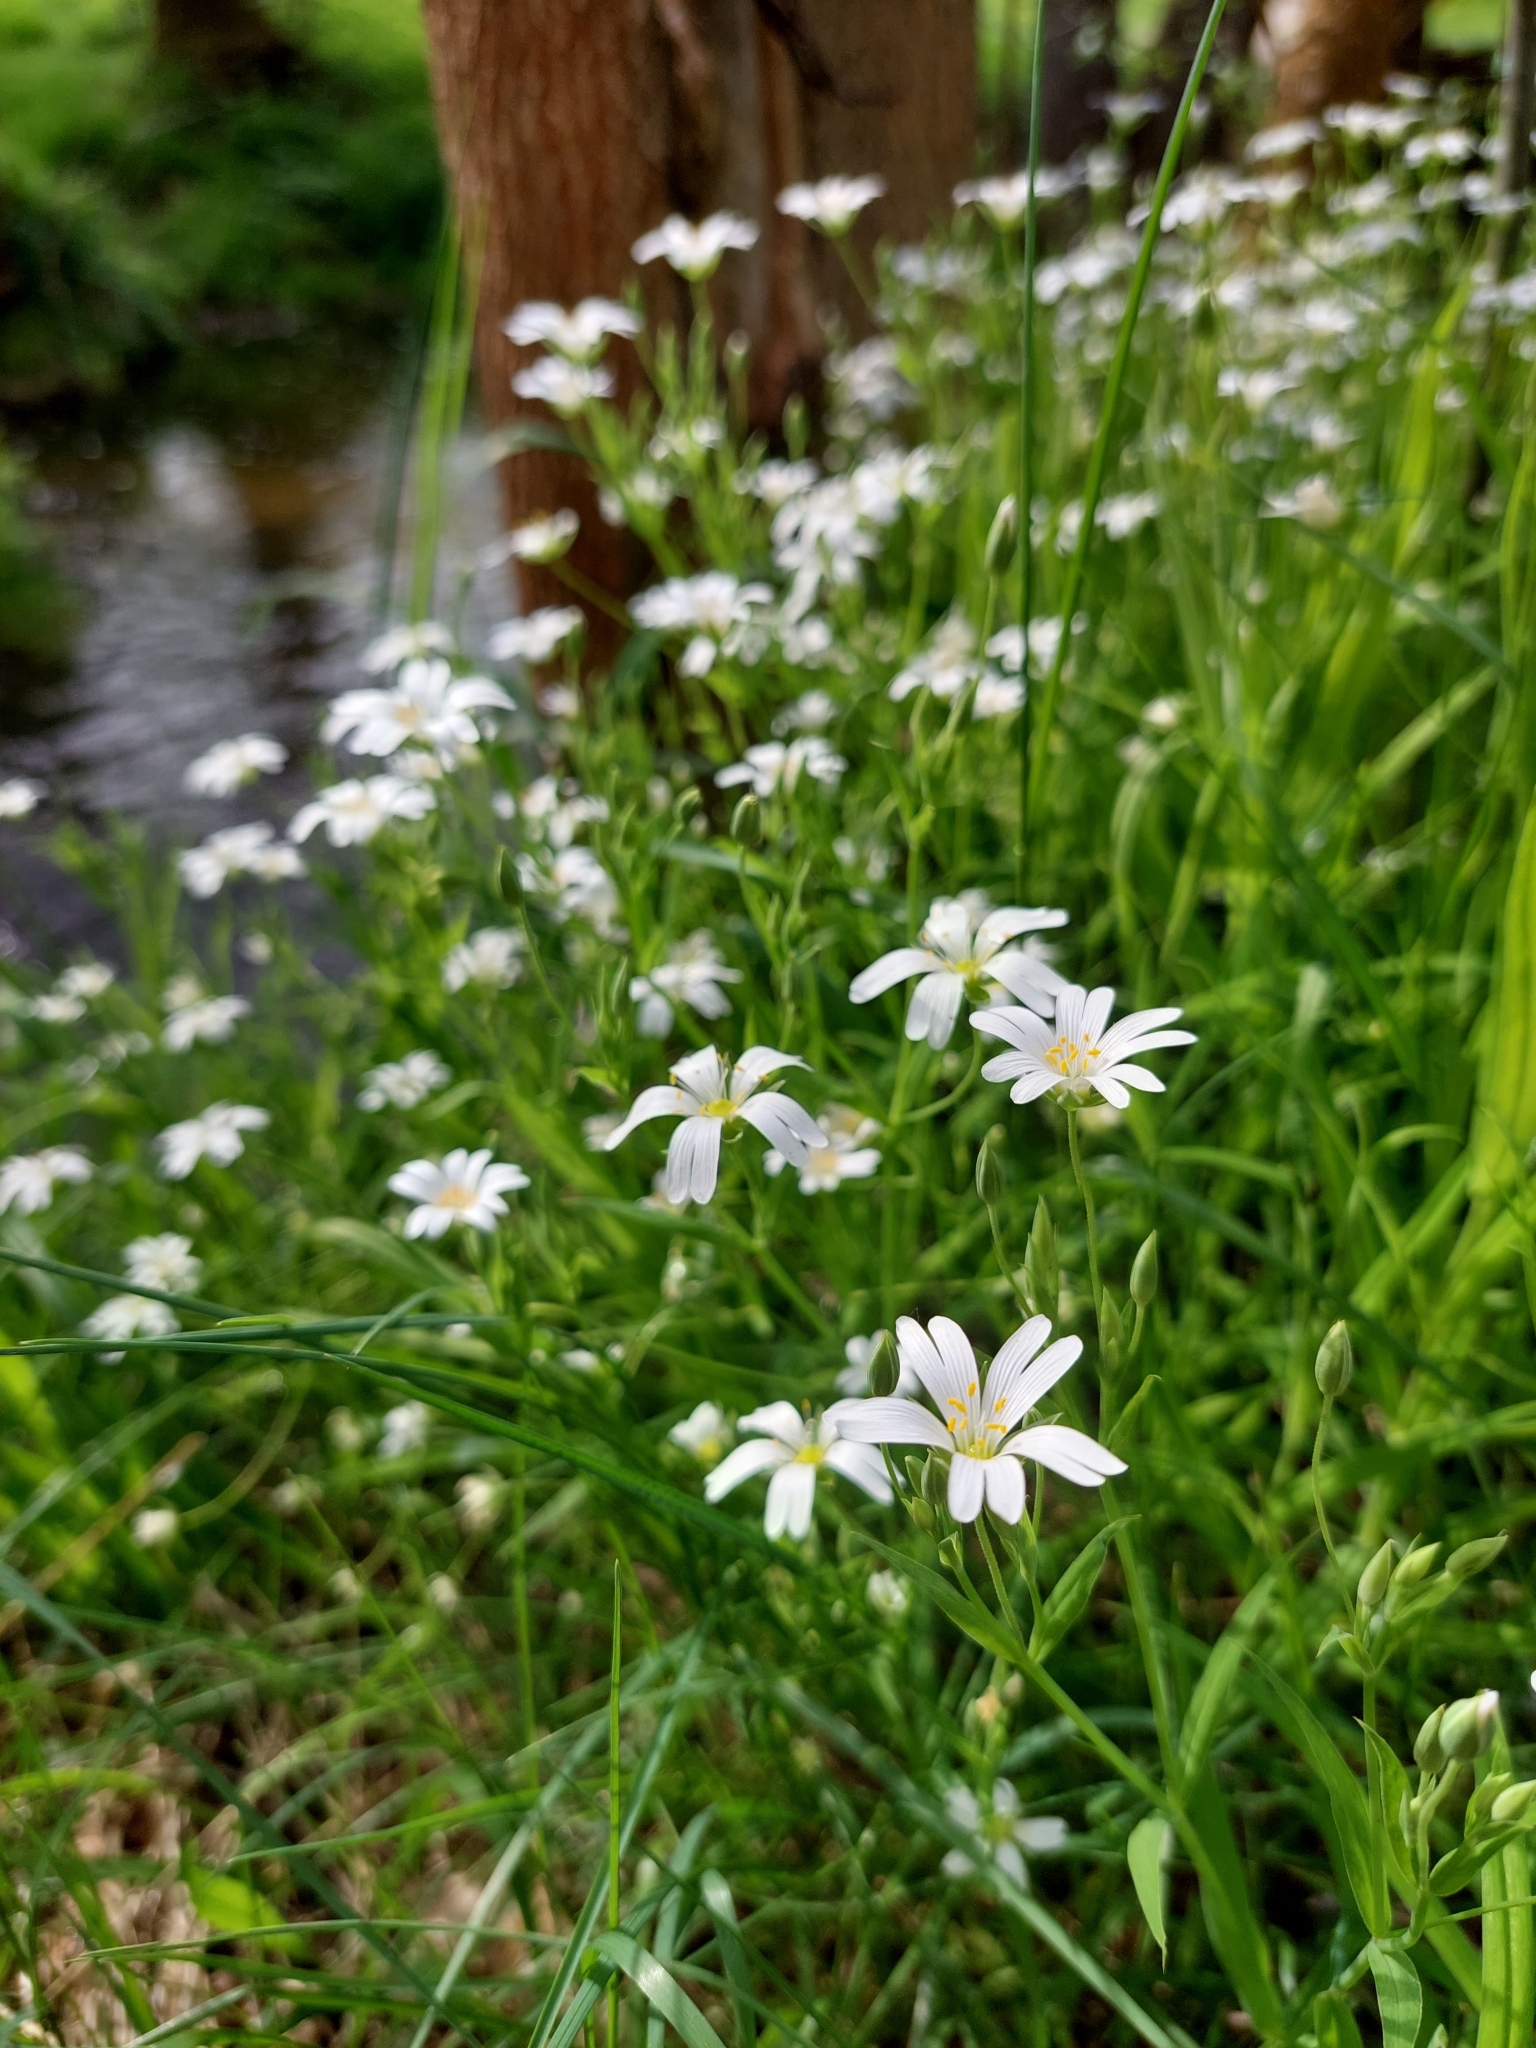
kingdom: Plantae
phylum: Tracheophyta
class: Magnoliopsida
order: Caryophyllales
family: Caryophyllaceae
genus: Rabelera
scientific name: Rabelera holostea
